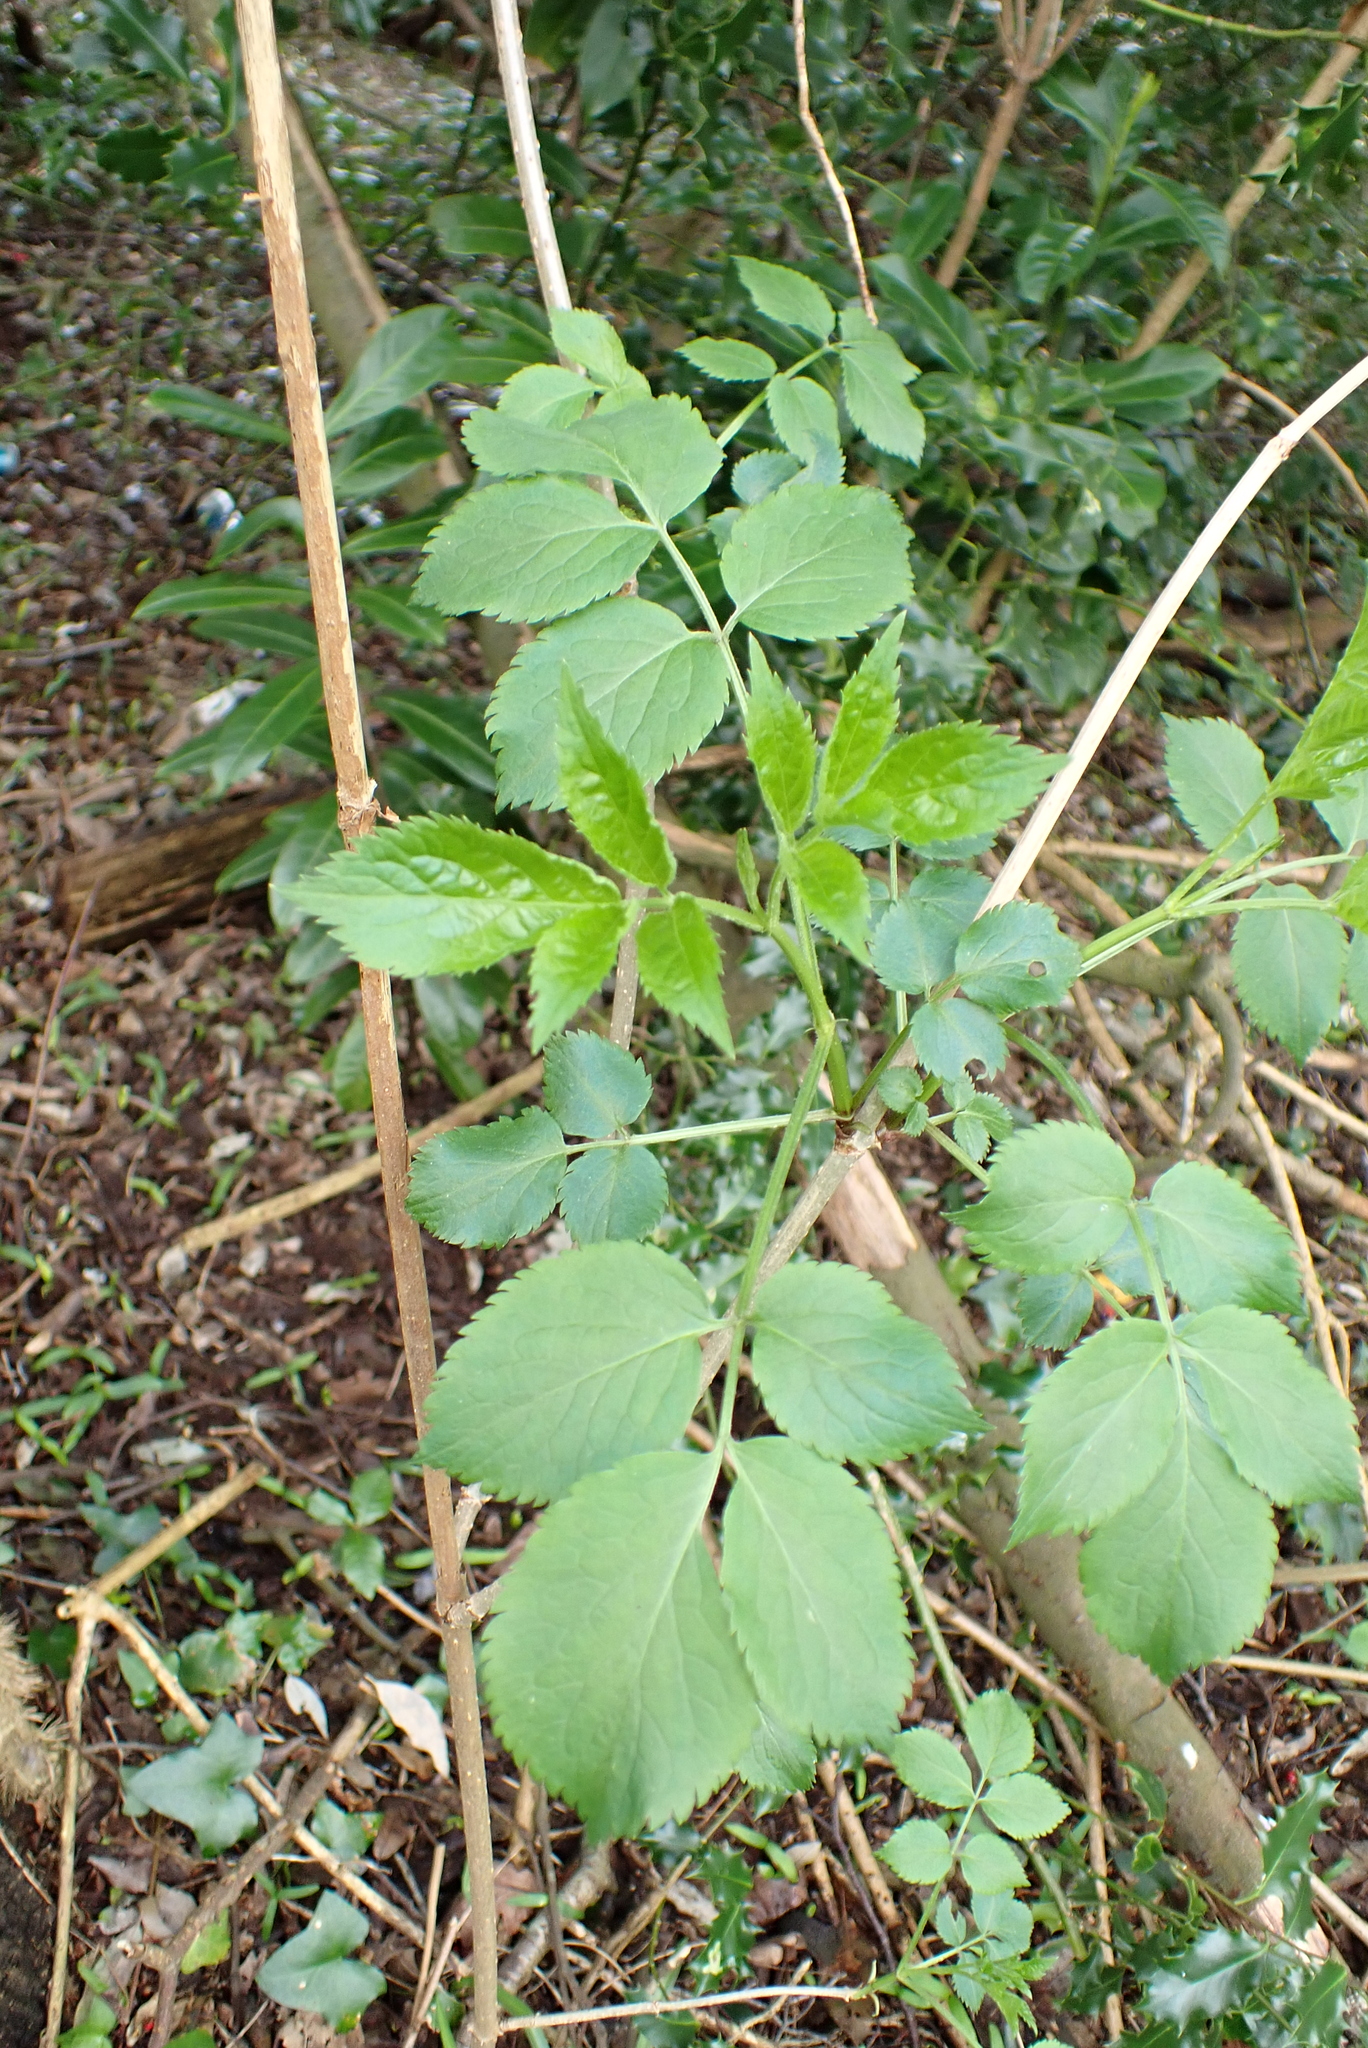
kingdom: Plantae
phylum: Tracheophyta
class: Magnoliopsida
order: Dipsacales
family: Viburnaceae
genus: Sambucus
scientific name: Sambucus nigra
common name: Elder
